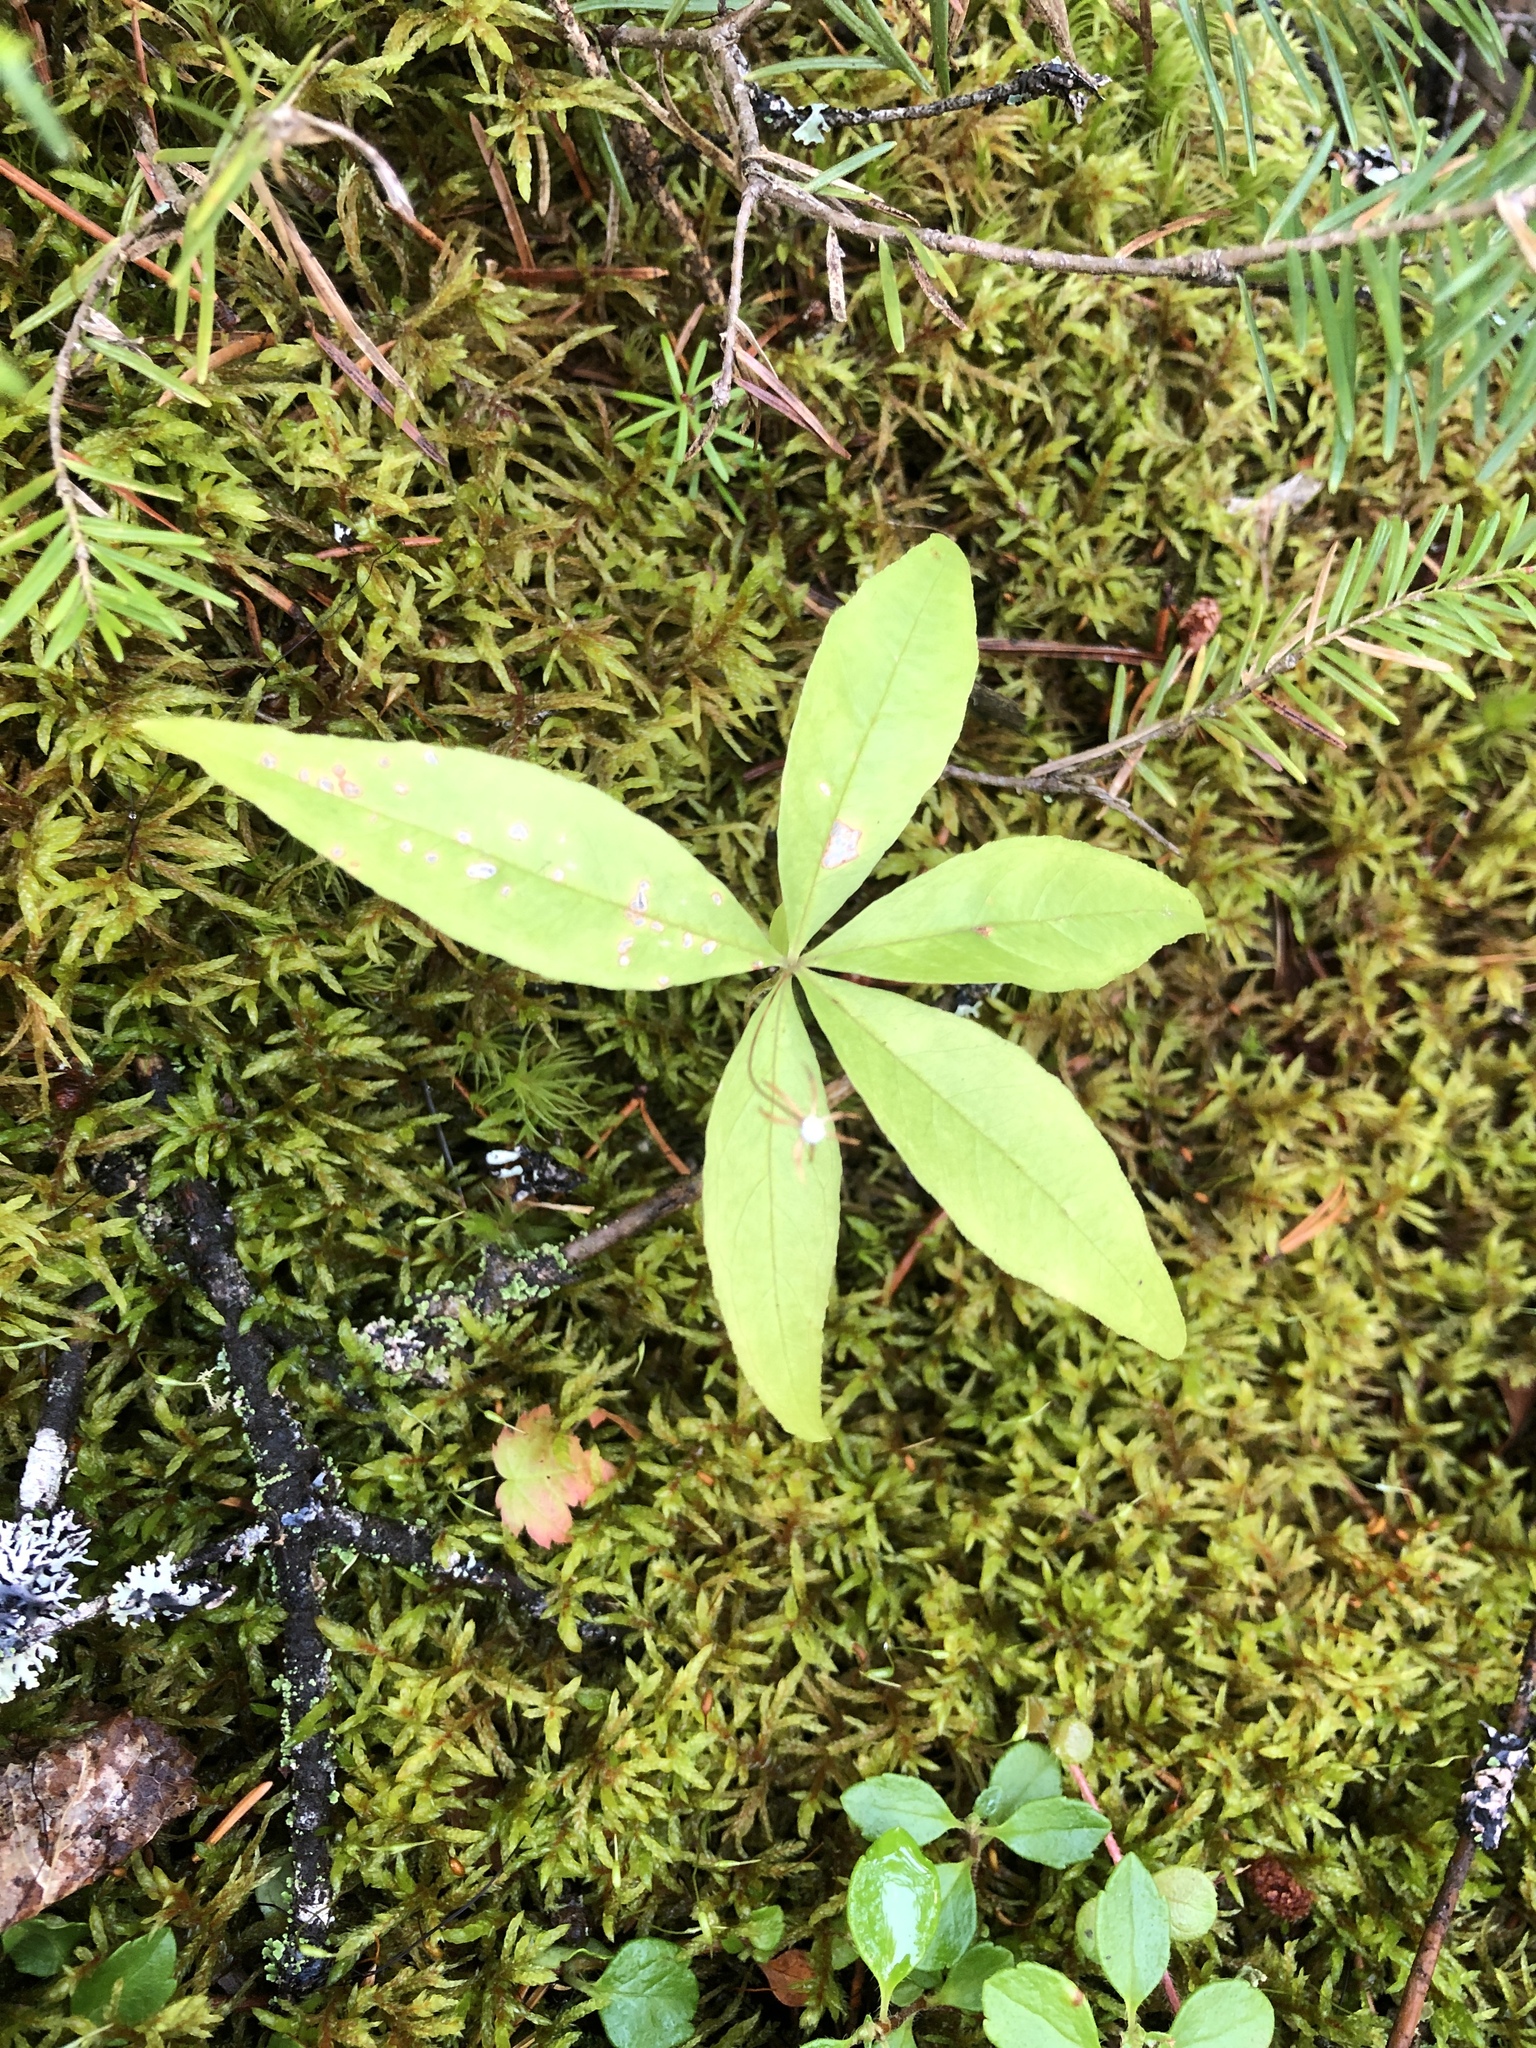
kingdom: Plantae
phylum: Tracheophyta
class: Magnoliopsida
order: Ericales
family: Primulaceae
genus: Lysimachia
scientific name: Lysimachia borealis
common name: American starflower
